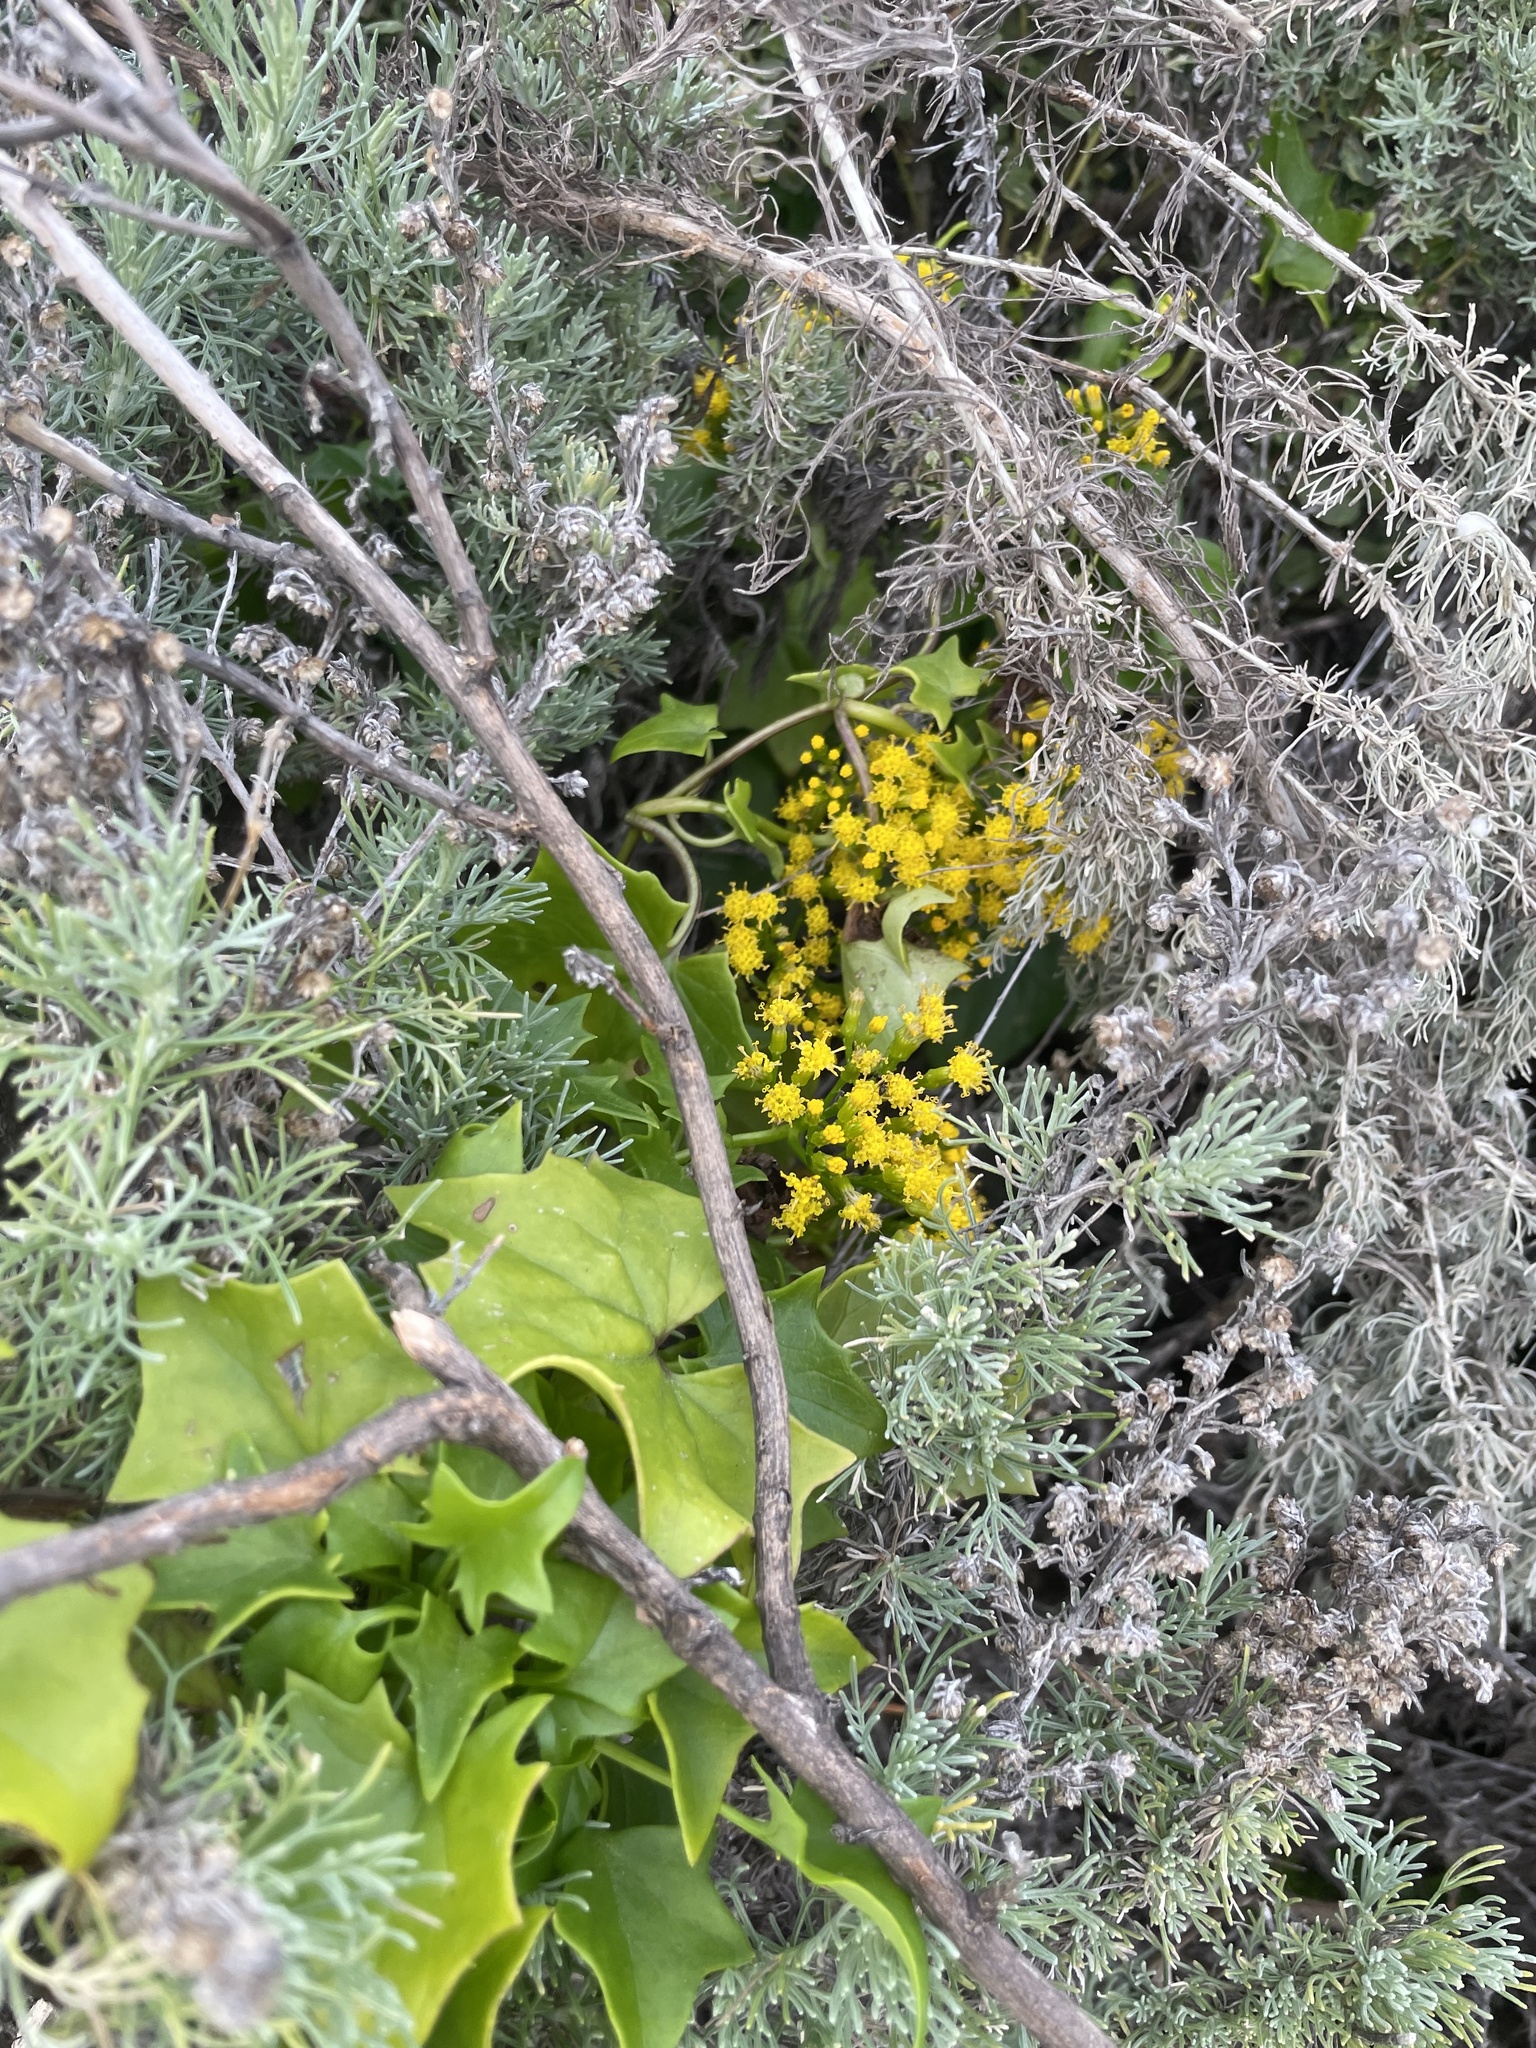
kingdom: Plantae
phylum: Tracheophyta
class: Magnoliopsida
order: Asterales
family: Asteraceae
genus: Delairea
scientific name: Delairea odorata
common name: Cape-ivy
